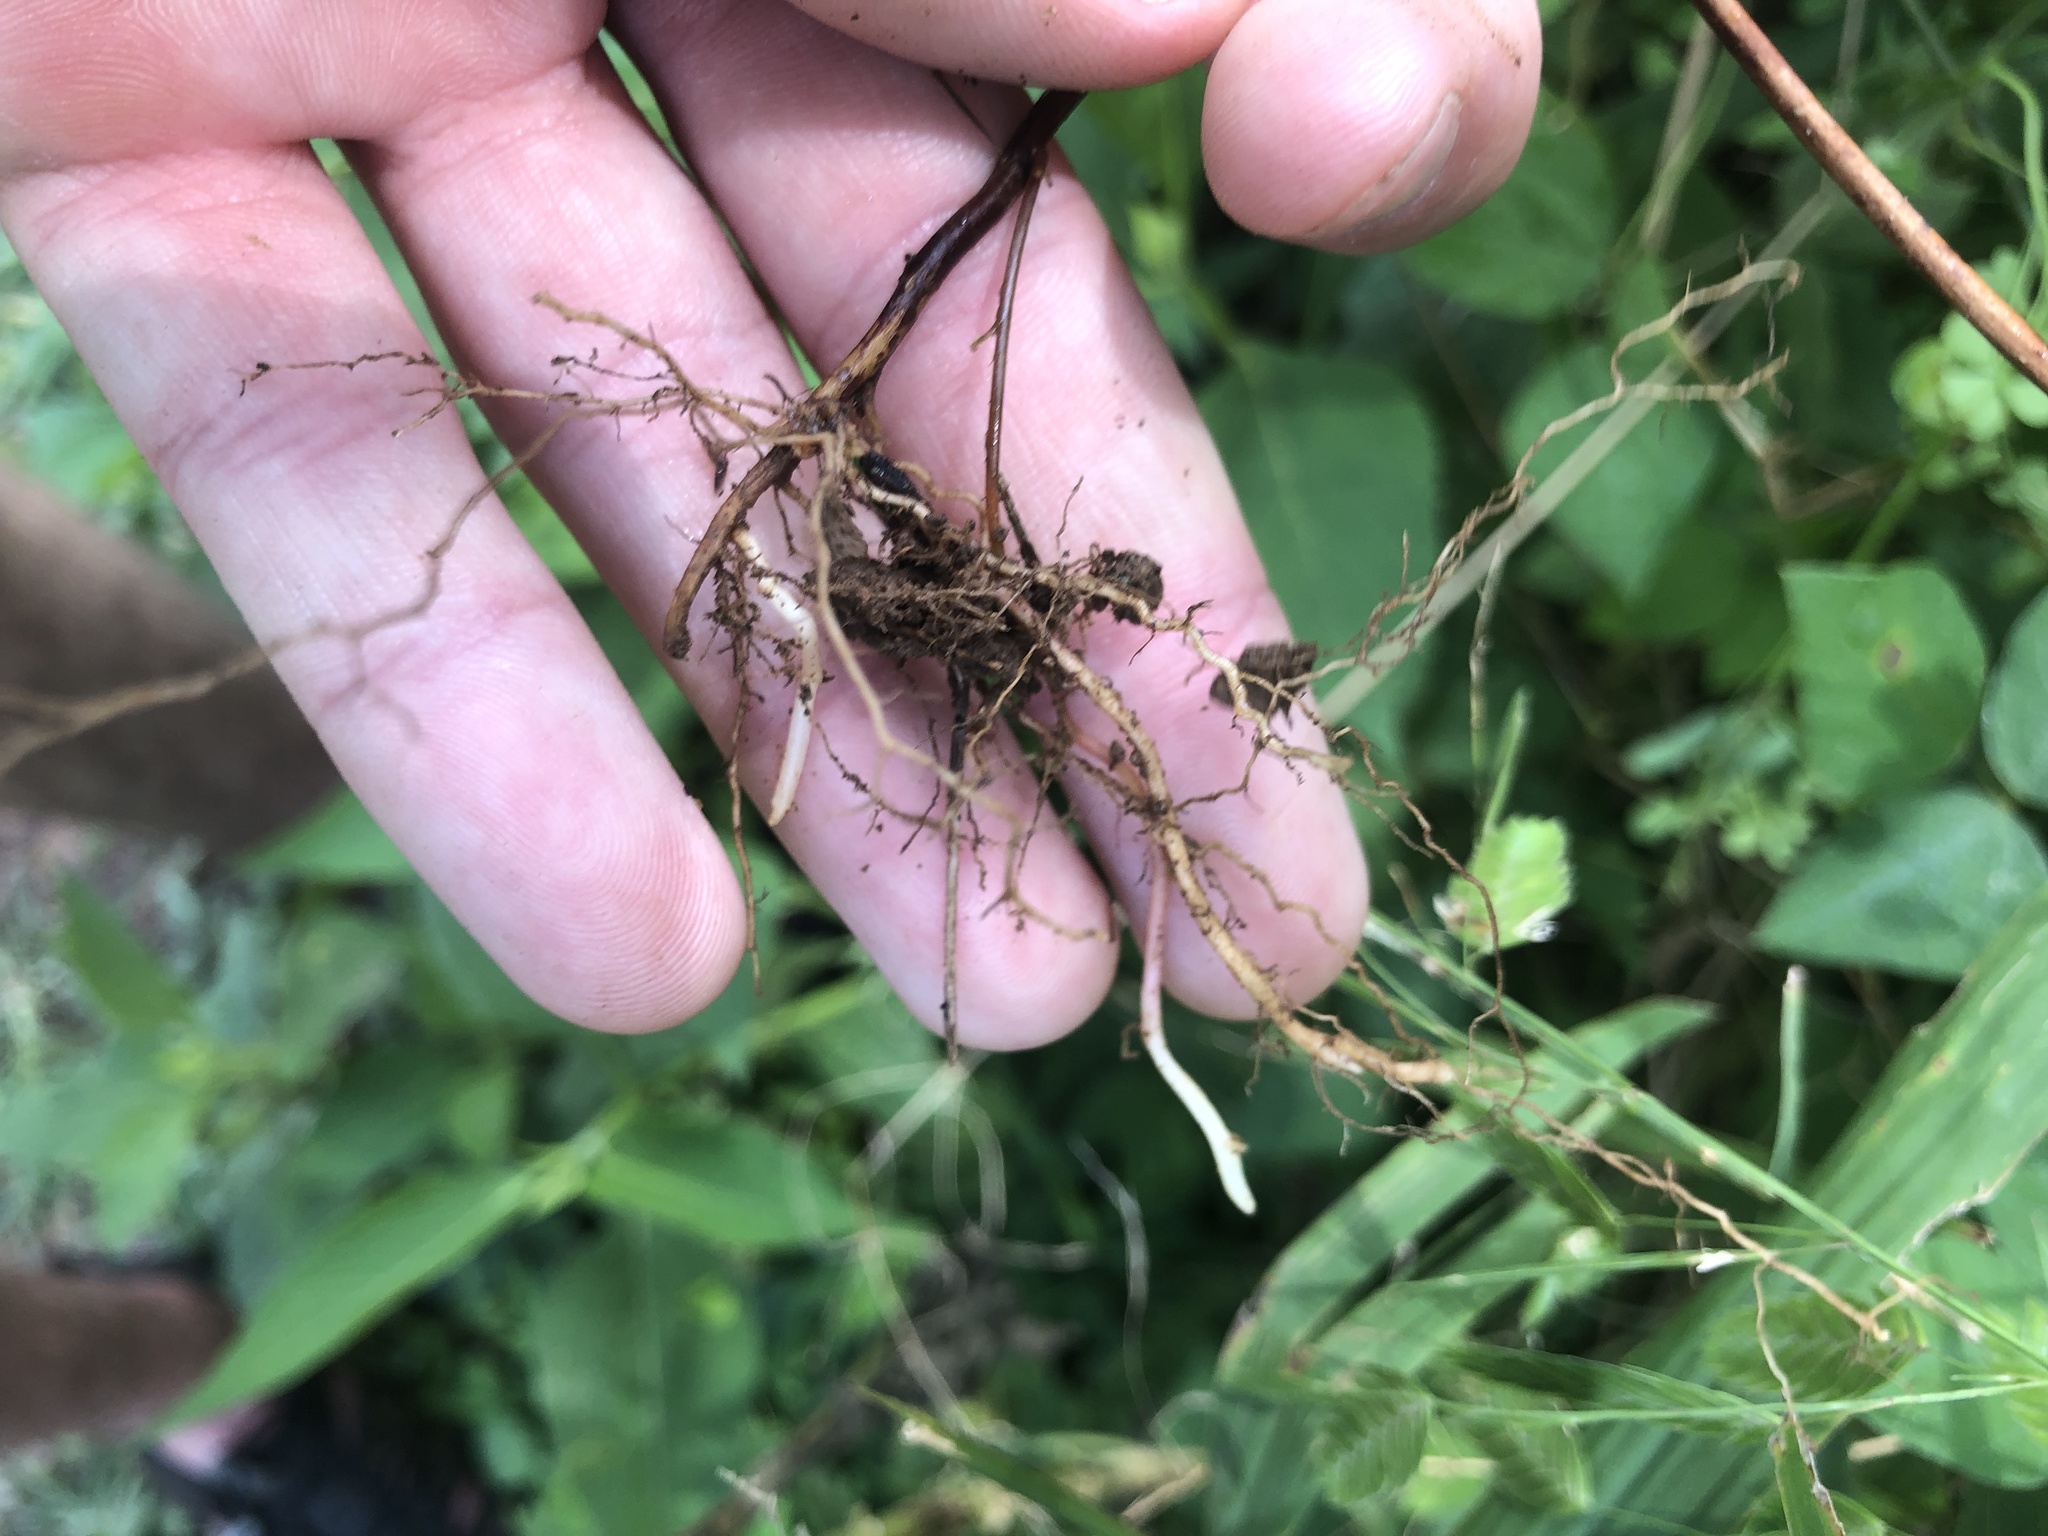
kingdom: Plantae
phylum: Tracheophyta
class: Magnoliopsida
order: Oxalidales
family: Oxalidaceae
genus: Oxalis
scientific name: Oxalis stricta
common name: Upright yellow-sorrel
